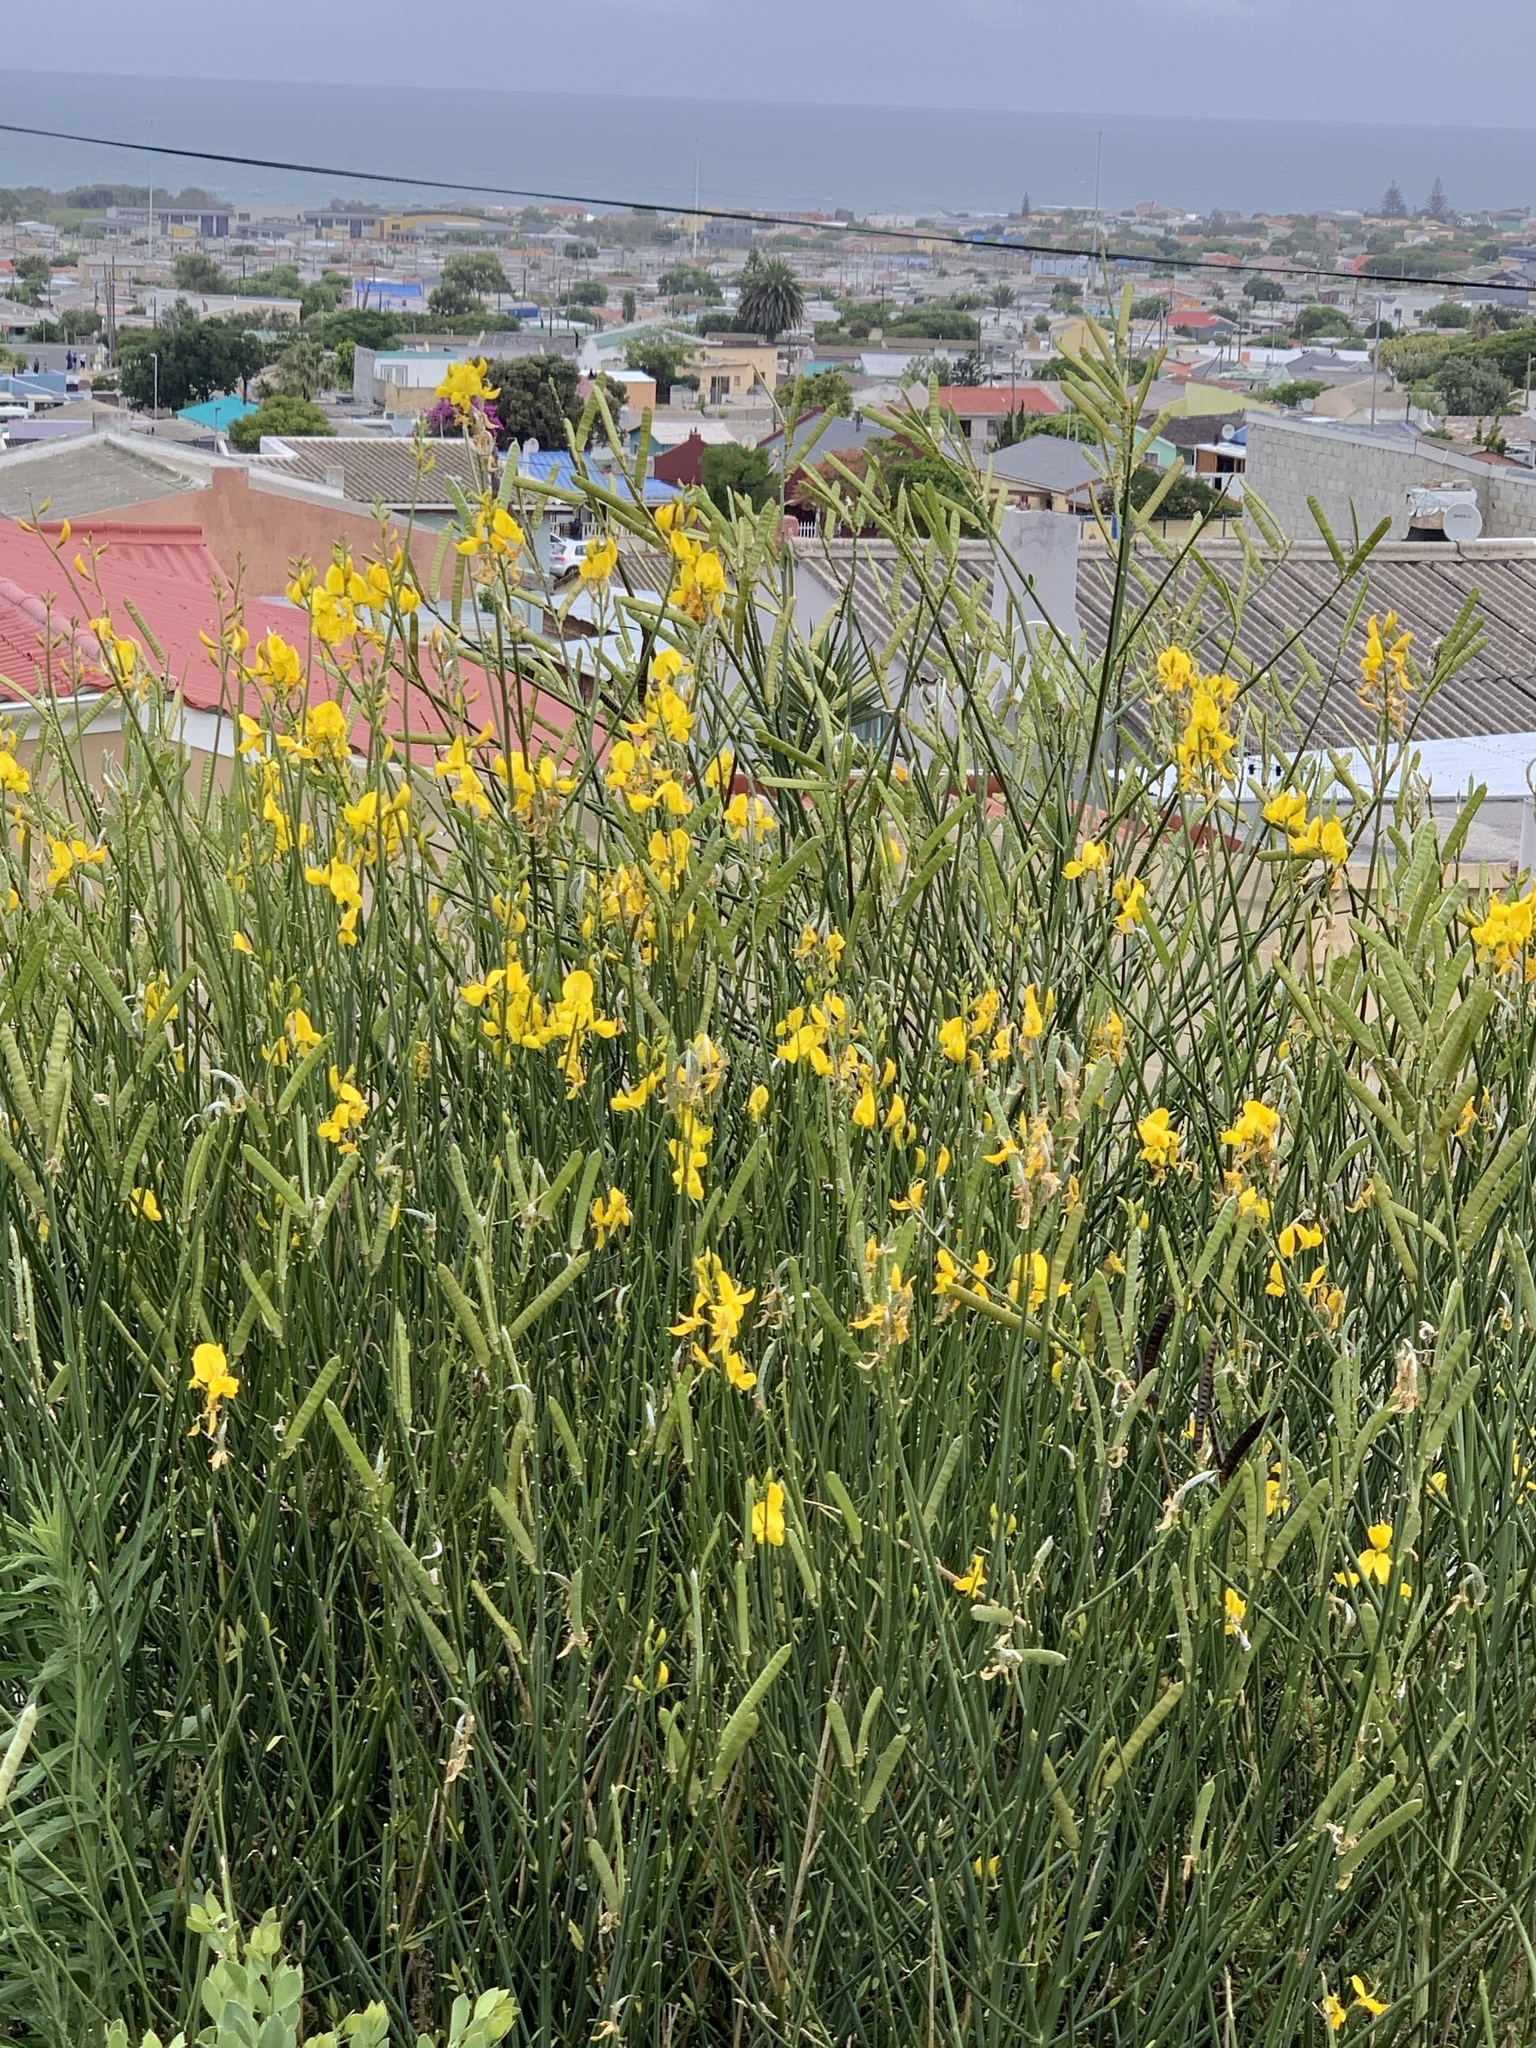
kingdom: Plantae
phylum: Tracheophyta
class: Magnoliopsida
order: Fabales
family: Fabaceae
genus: Spartium
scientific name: Spartium junceum
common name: Spanish broom
